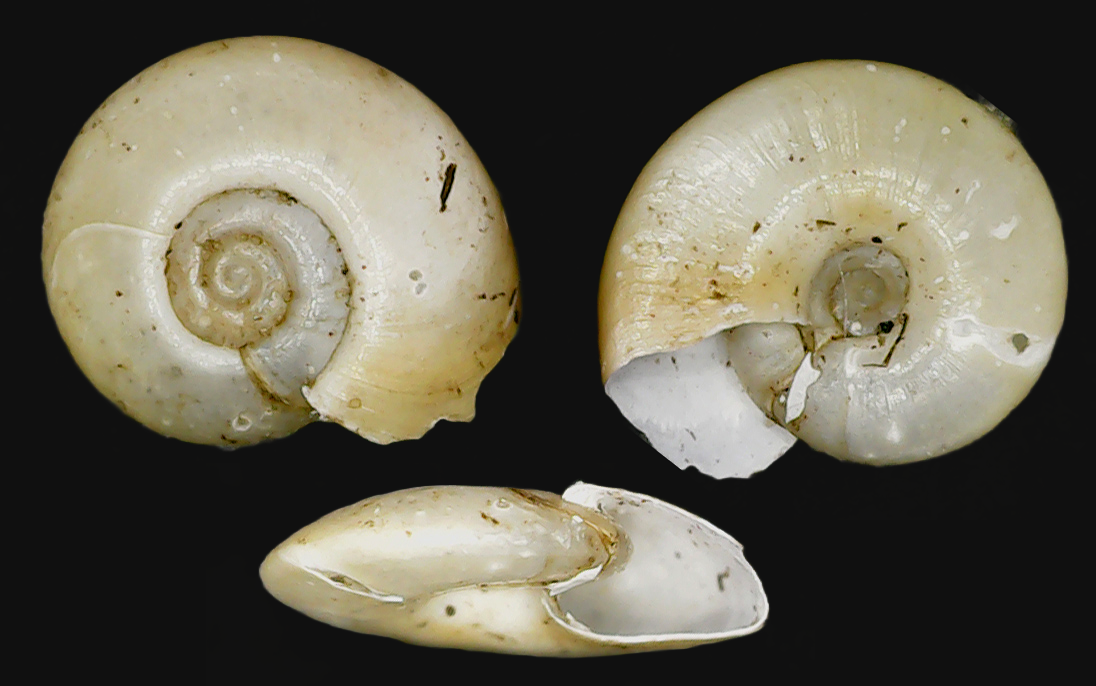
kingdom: Animalia
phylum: Mollusca
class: Gastropoda
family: Planorbidae
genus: Segmentina
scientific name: Segmentina nitida
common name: The shining ram's-horn
